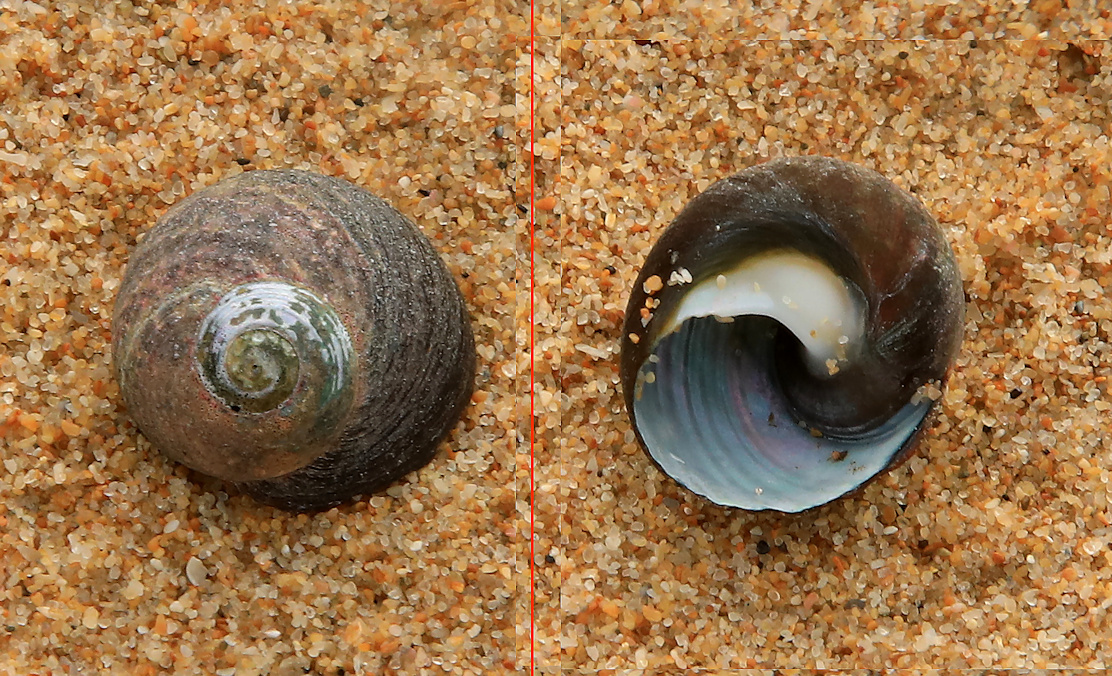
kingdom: Animalia
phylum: Mollusca
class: Gastropoda
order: Trochida
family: Trochidae
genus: Oxystele
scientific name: Oxystele tigrina
